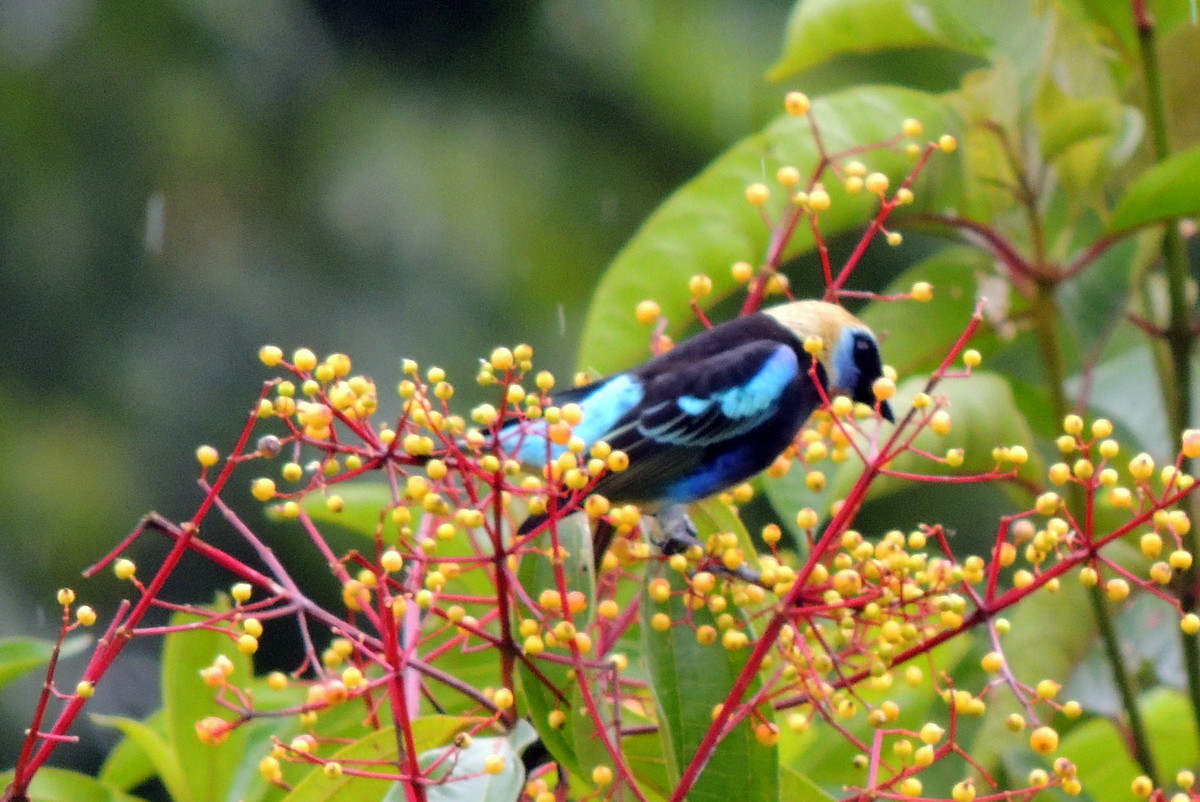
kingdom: Animalia
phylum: Chordata
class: Aves
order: Passeriformes
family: Thraupidae
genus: Stilpnia
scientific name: Stilpnia larvata
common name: Golden-hooded tanager
